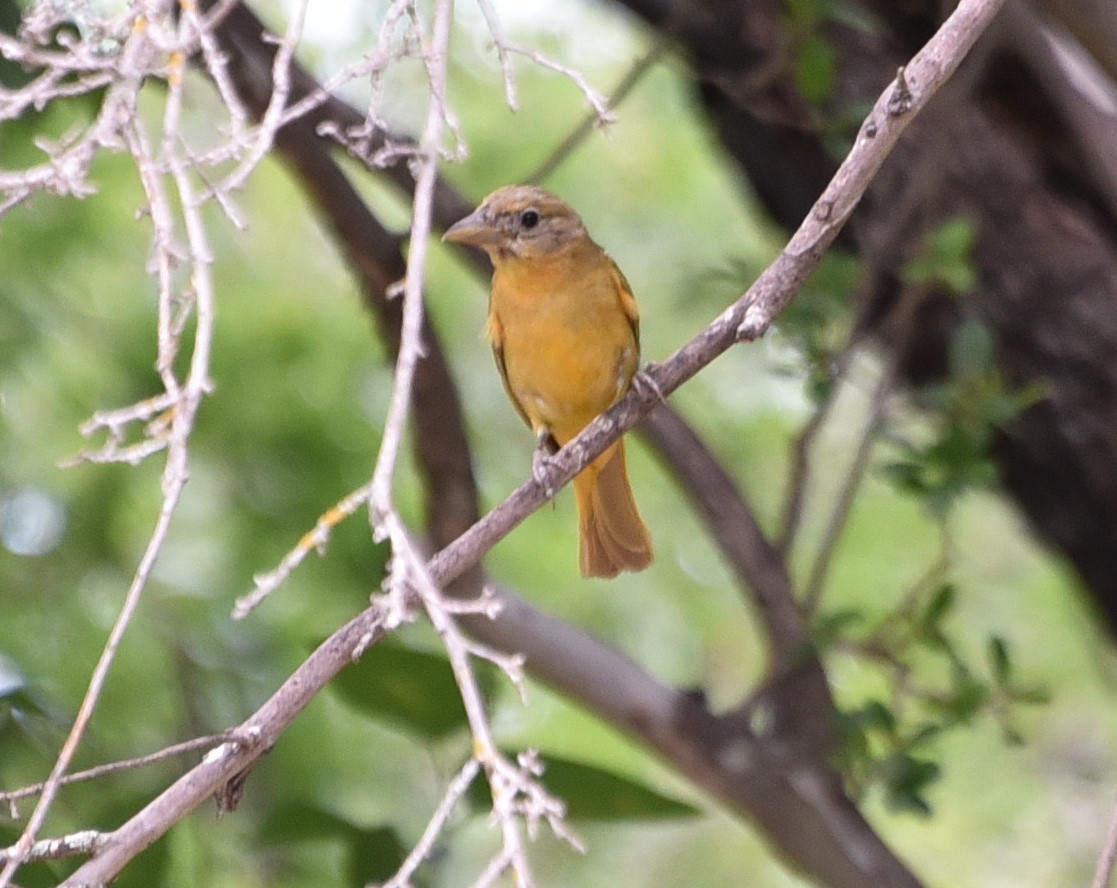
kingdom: Animalia
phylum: Chordata
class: Aves
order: Passeriformes
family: Cardinalidae
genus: Piranga
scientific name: Piranga rubra
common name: Summer tanager
